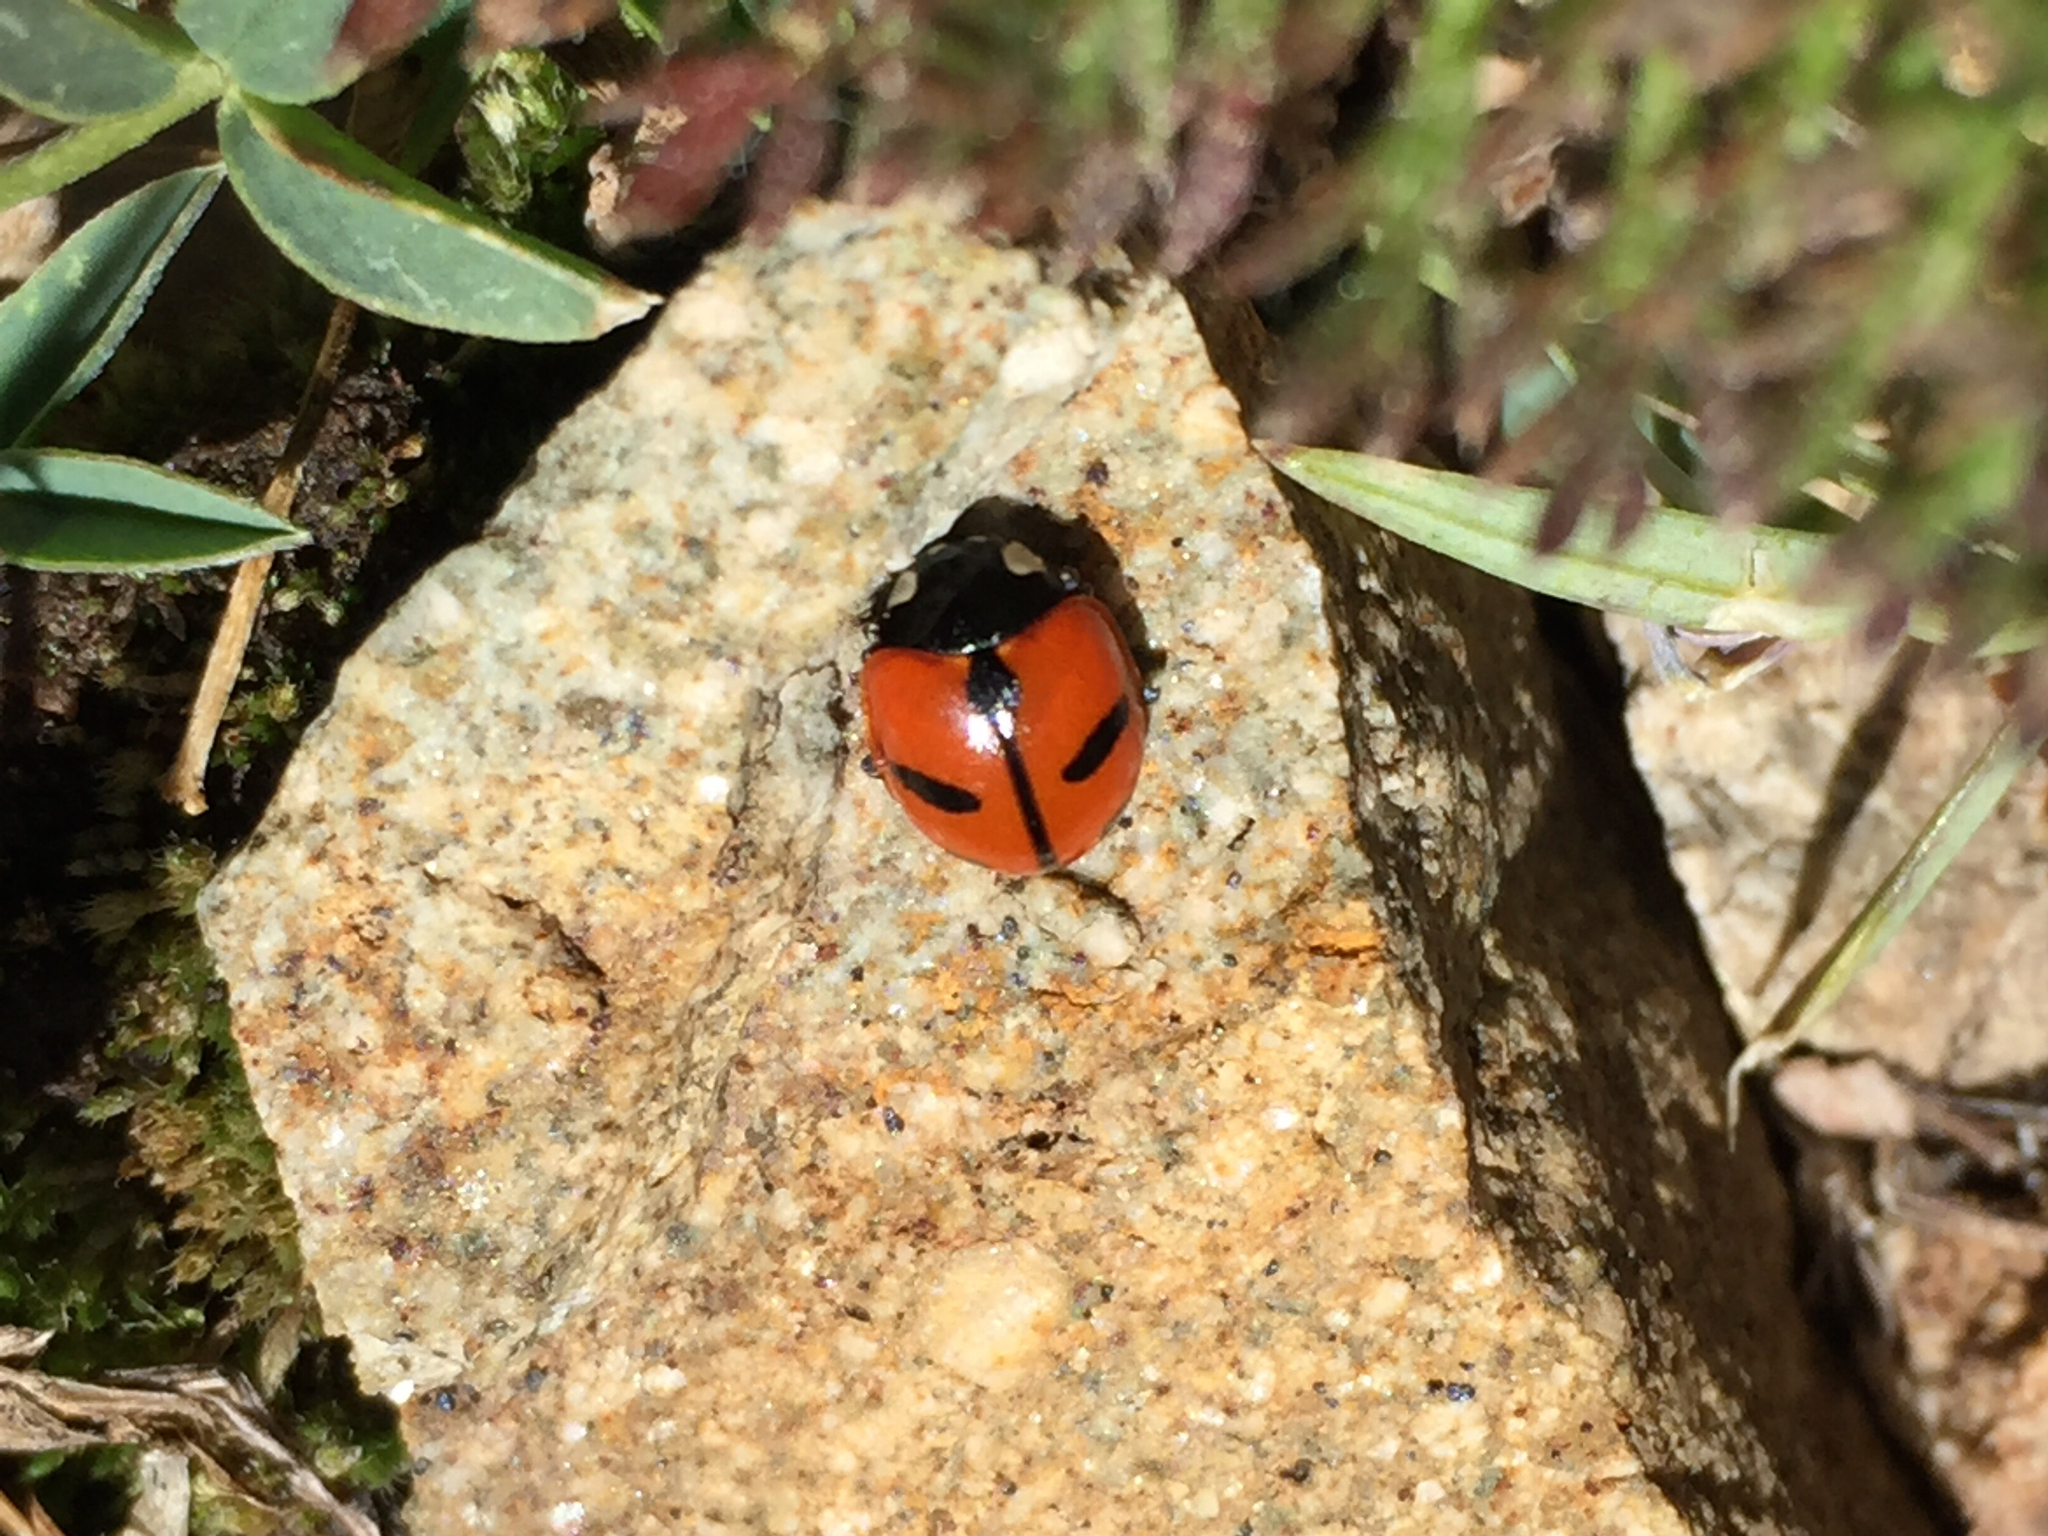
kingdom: Animalia
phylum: Arthropoda
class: Insecta
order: Coleoptera
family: Coccinellidae
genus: Coccinella
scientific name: Coccinella alta
